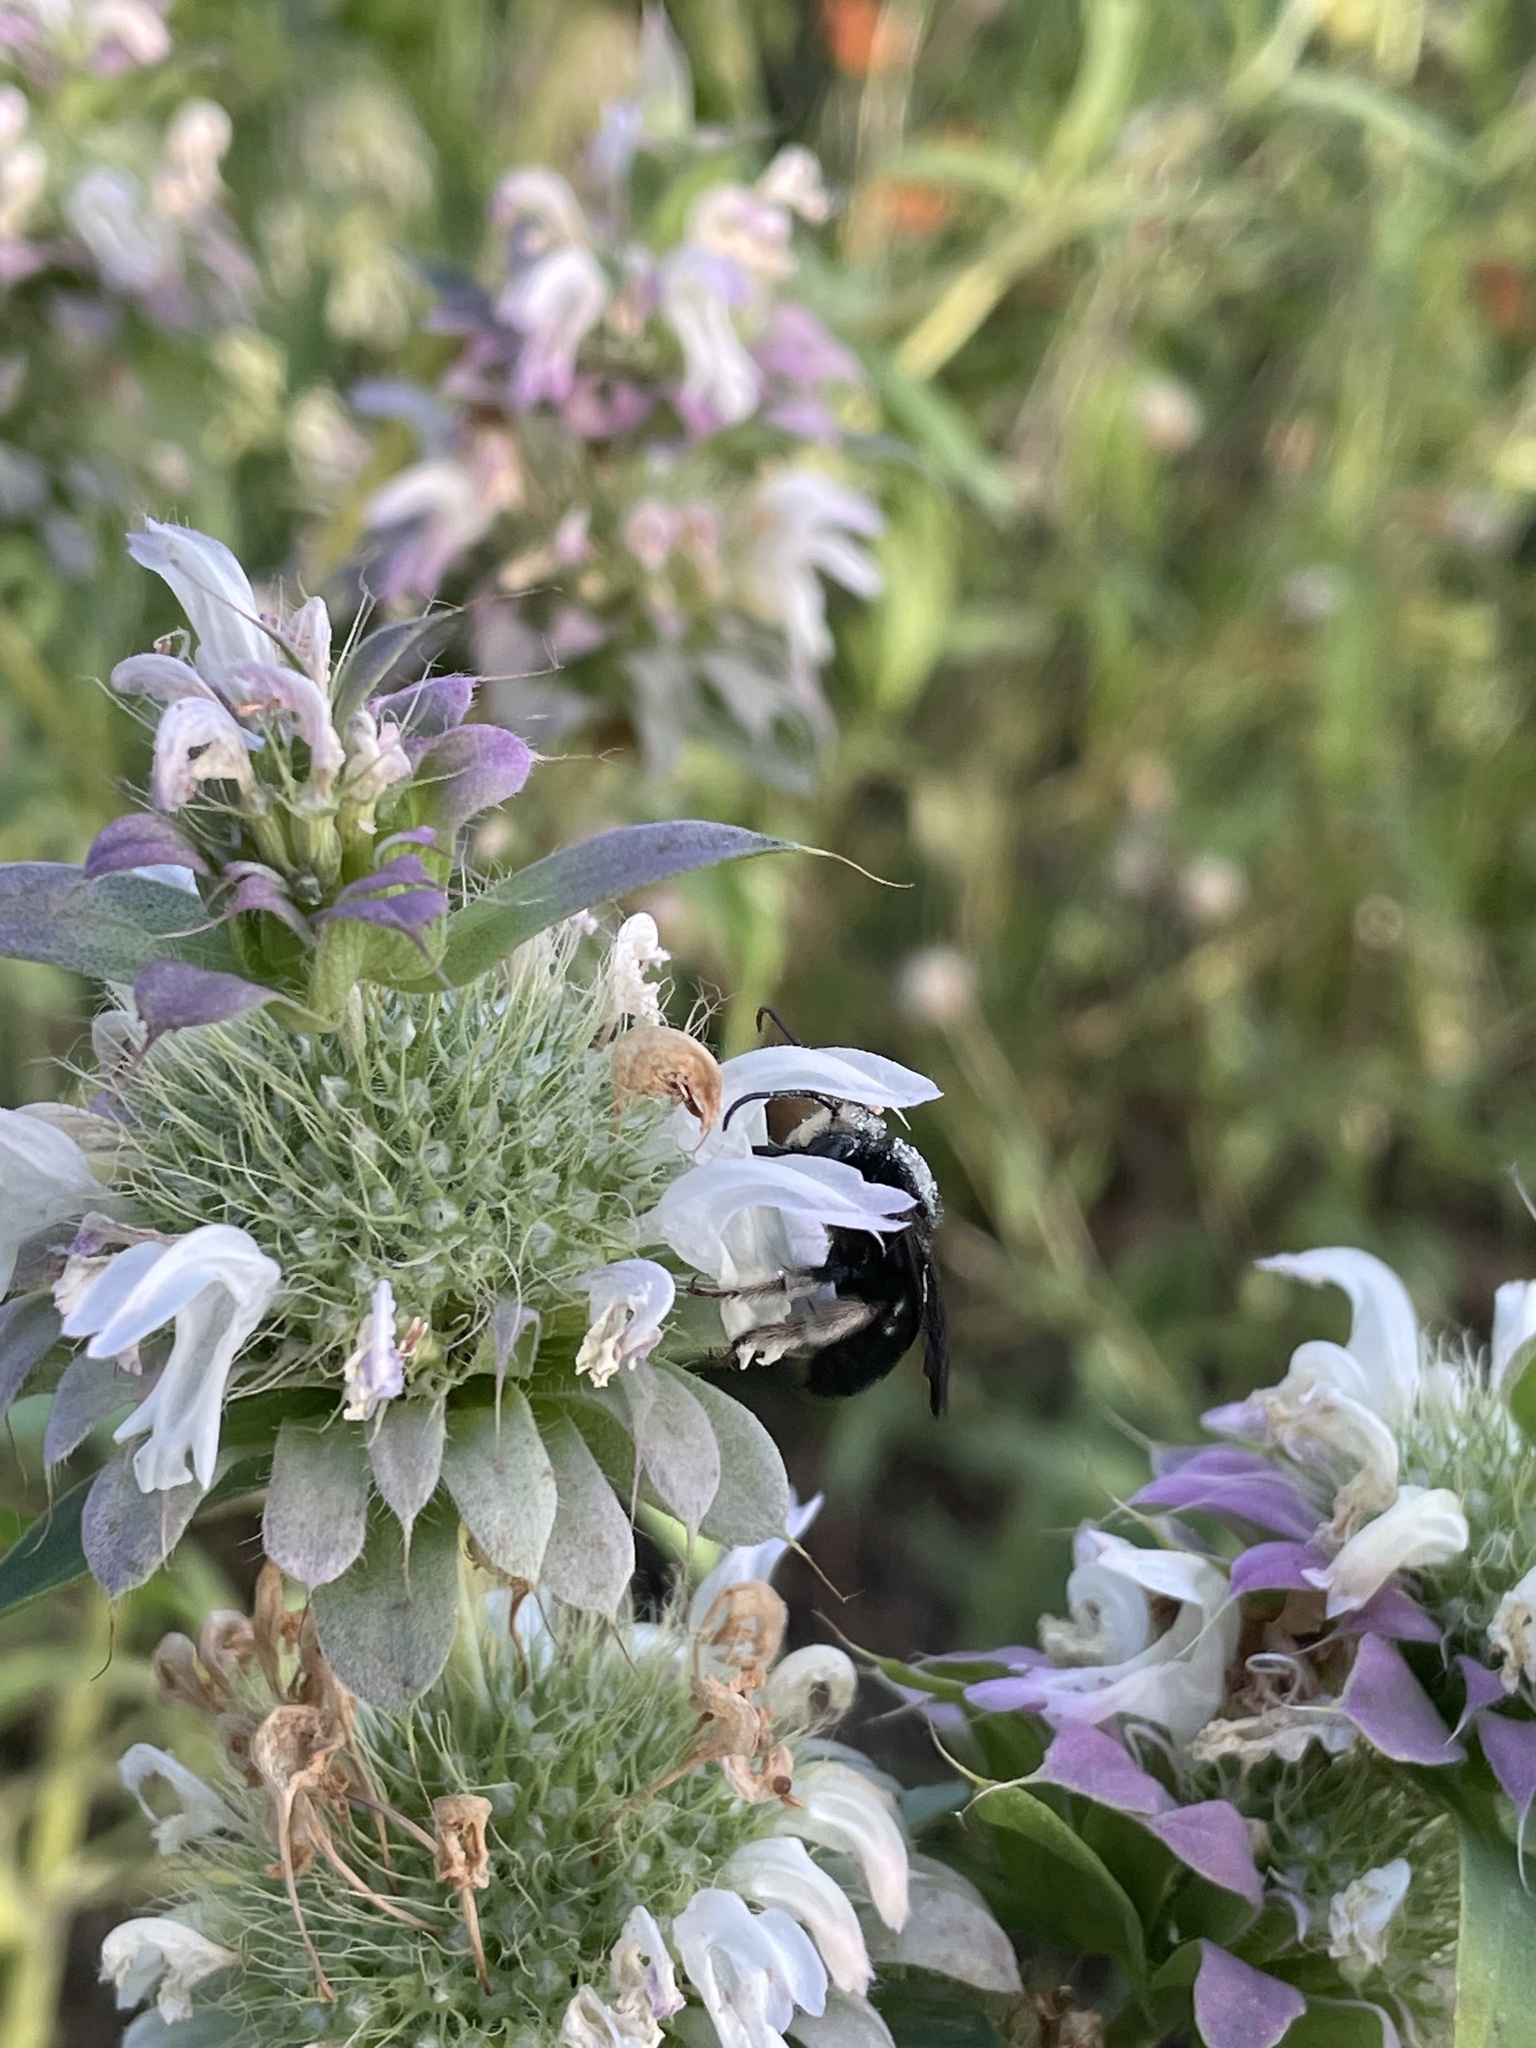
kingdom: Animalia
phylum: Arthropoda
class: Insecta
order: Hymenoptera
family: Apidae
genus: Melissodes
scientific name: Melissodes bimaculatus
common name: Two-spotted long-horned bee
